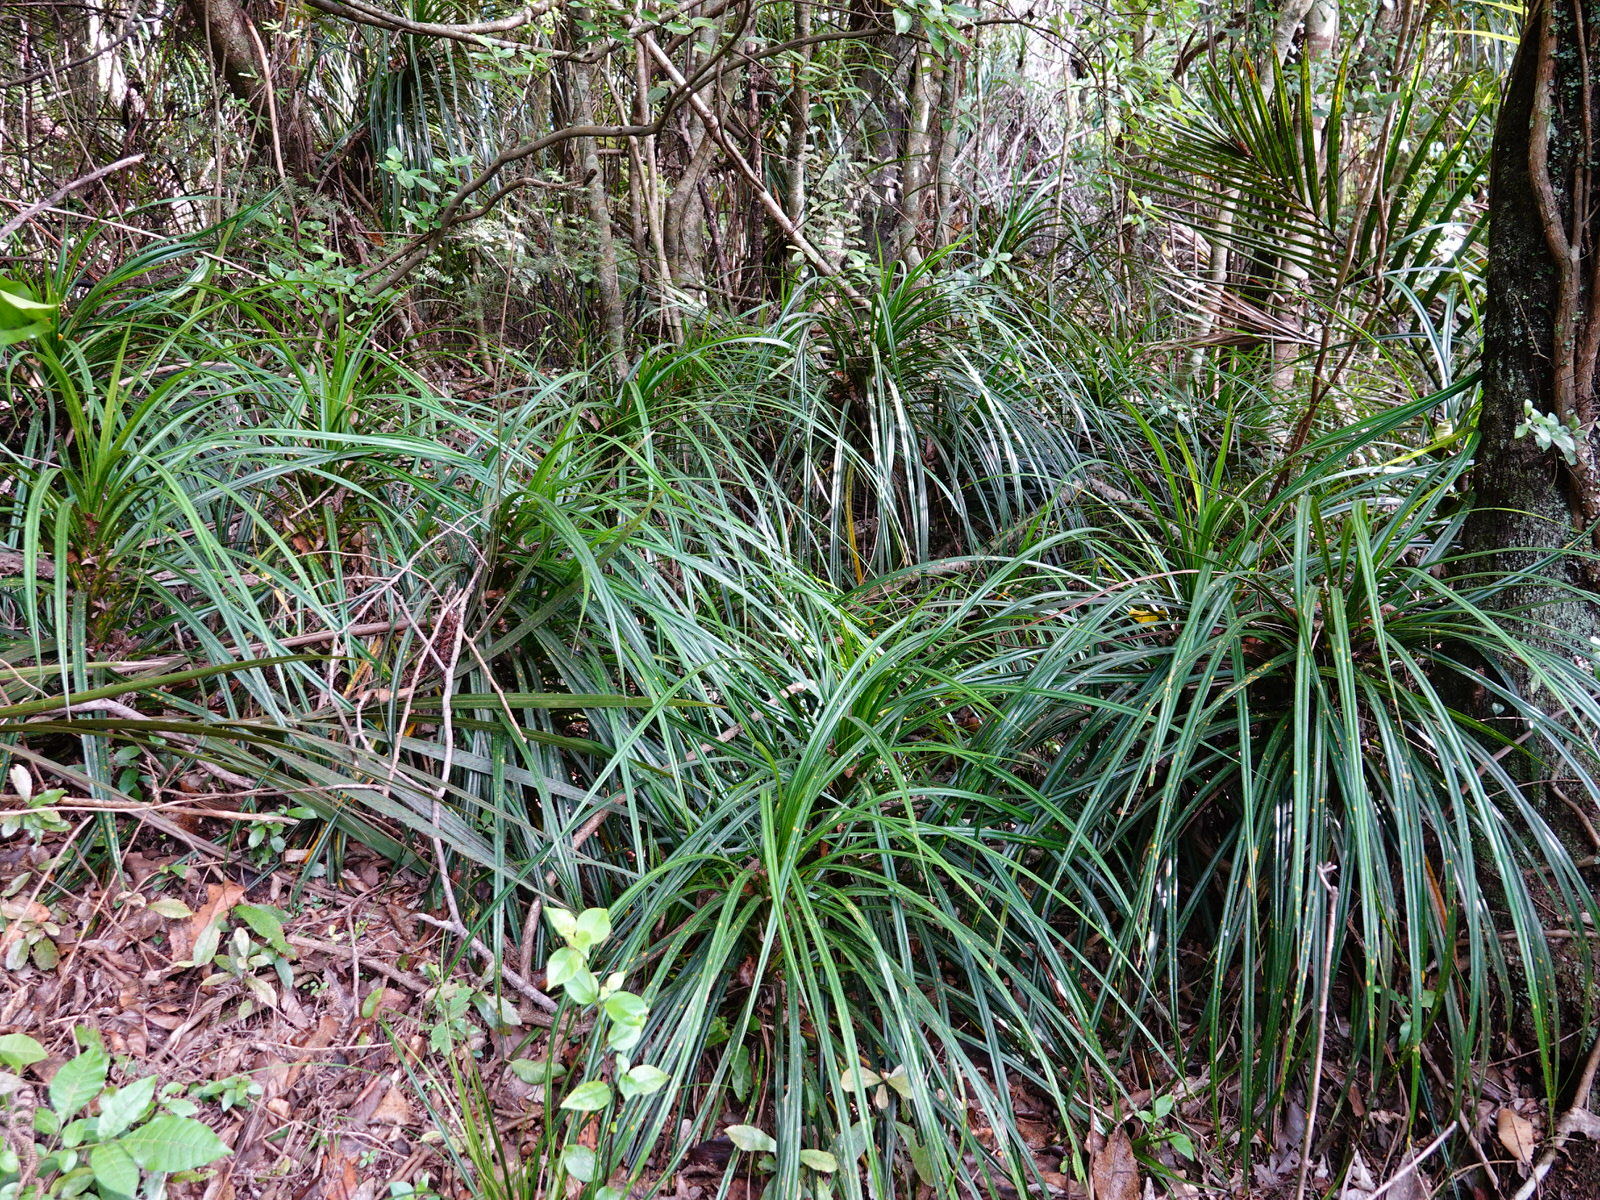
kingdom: Plantae
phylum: Tracheophyta
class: Liliopsida
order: Pandanales
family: Pandanaceae
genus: Freycinetia
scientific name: Freycinetia banksii
